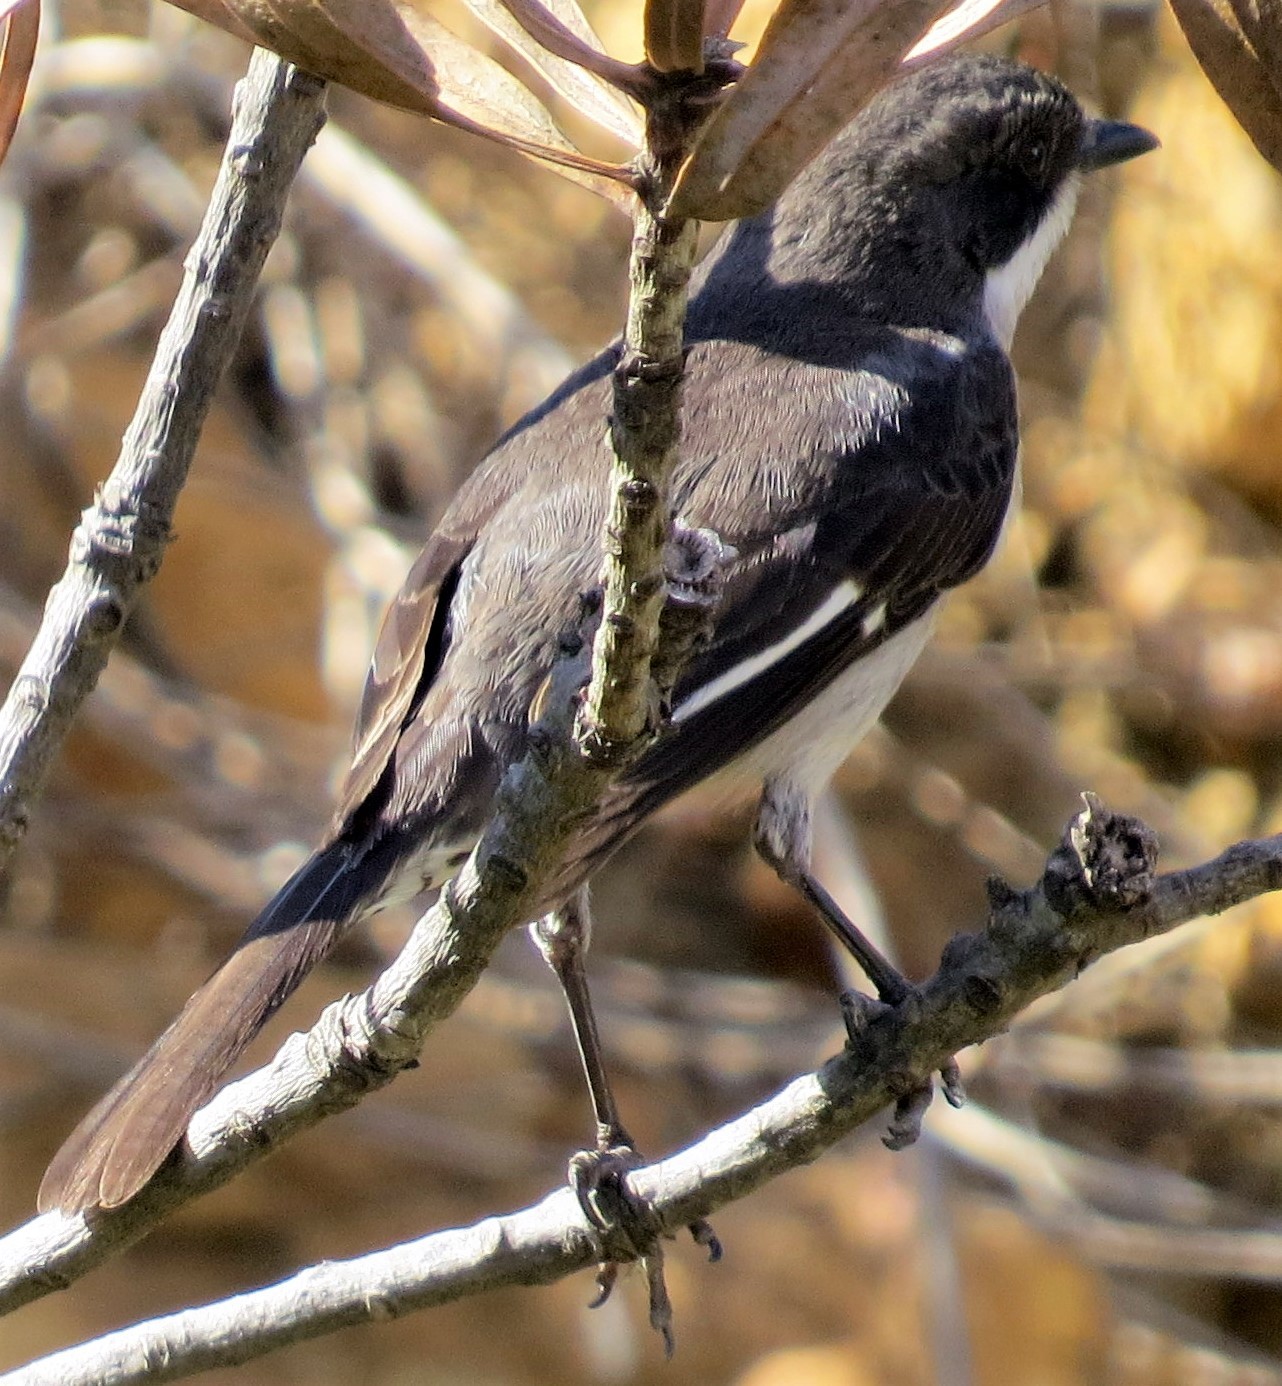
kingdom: Animalia
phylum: Chordata
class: Aves
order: Passeriformes
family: Muscicapidae
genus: Sigelus
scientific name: Sigelus silens
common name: Fiscal flycatcher
